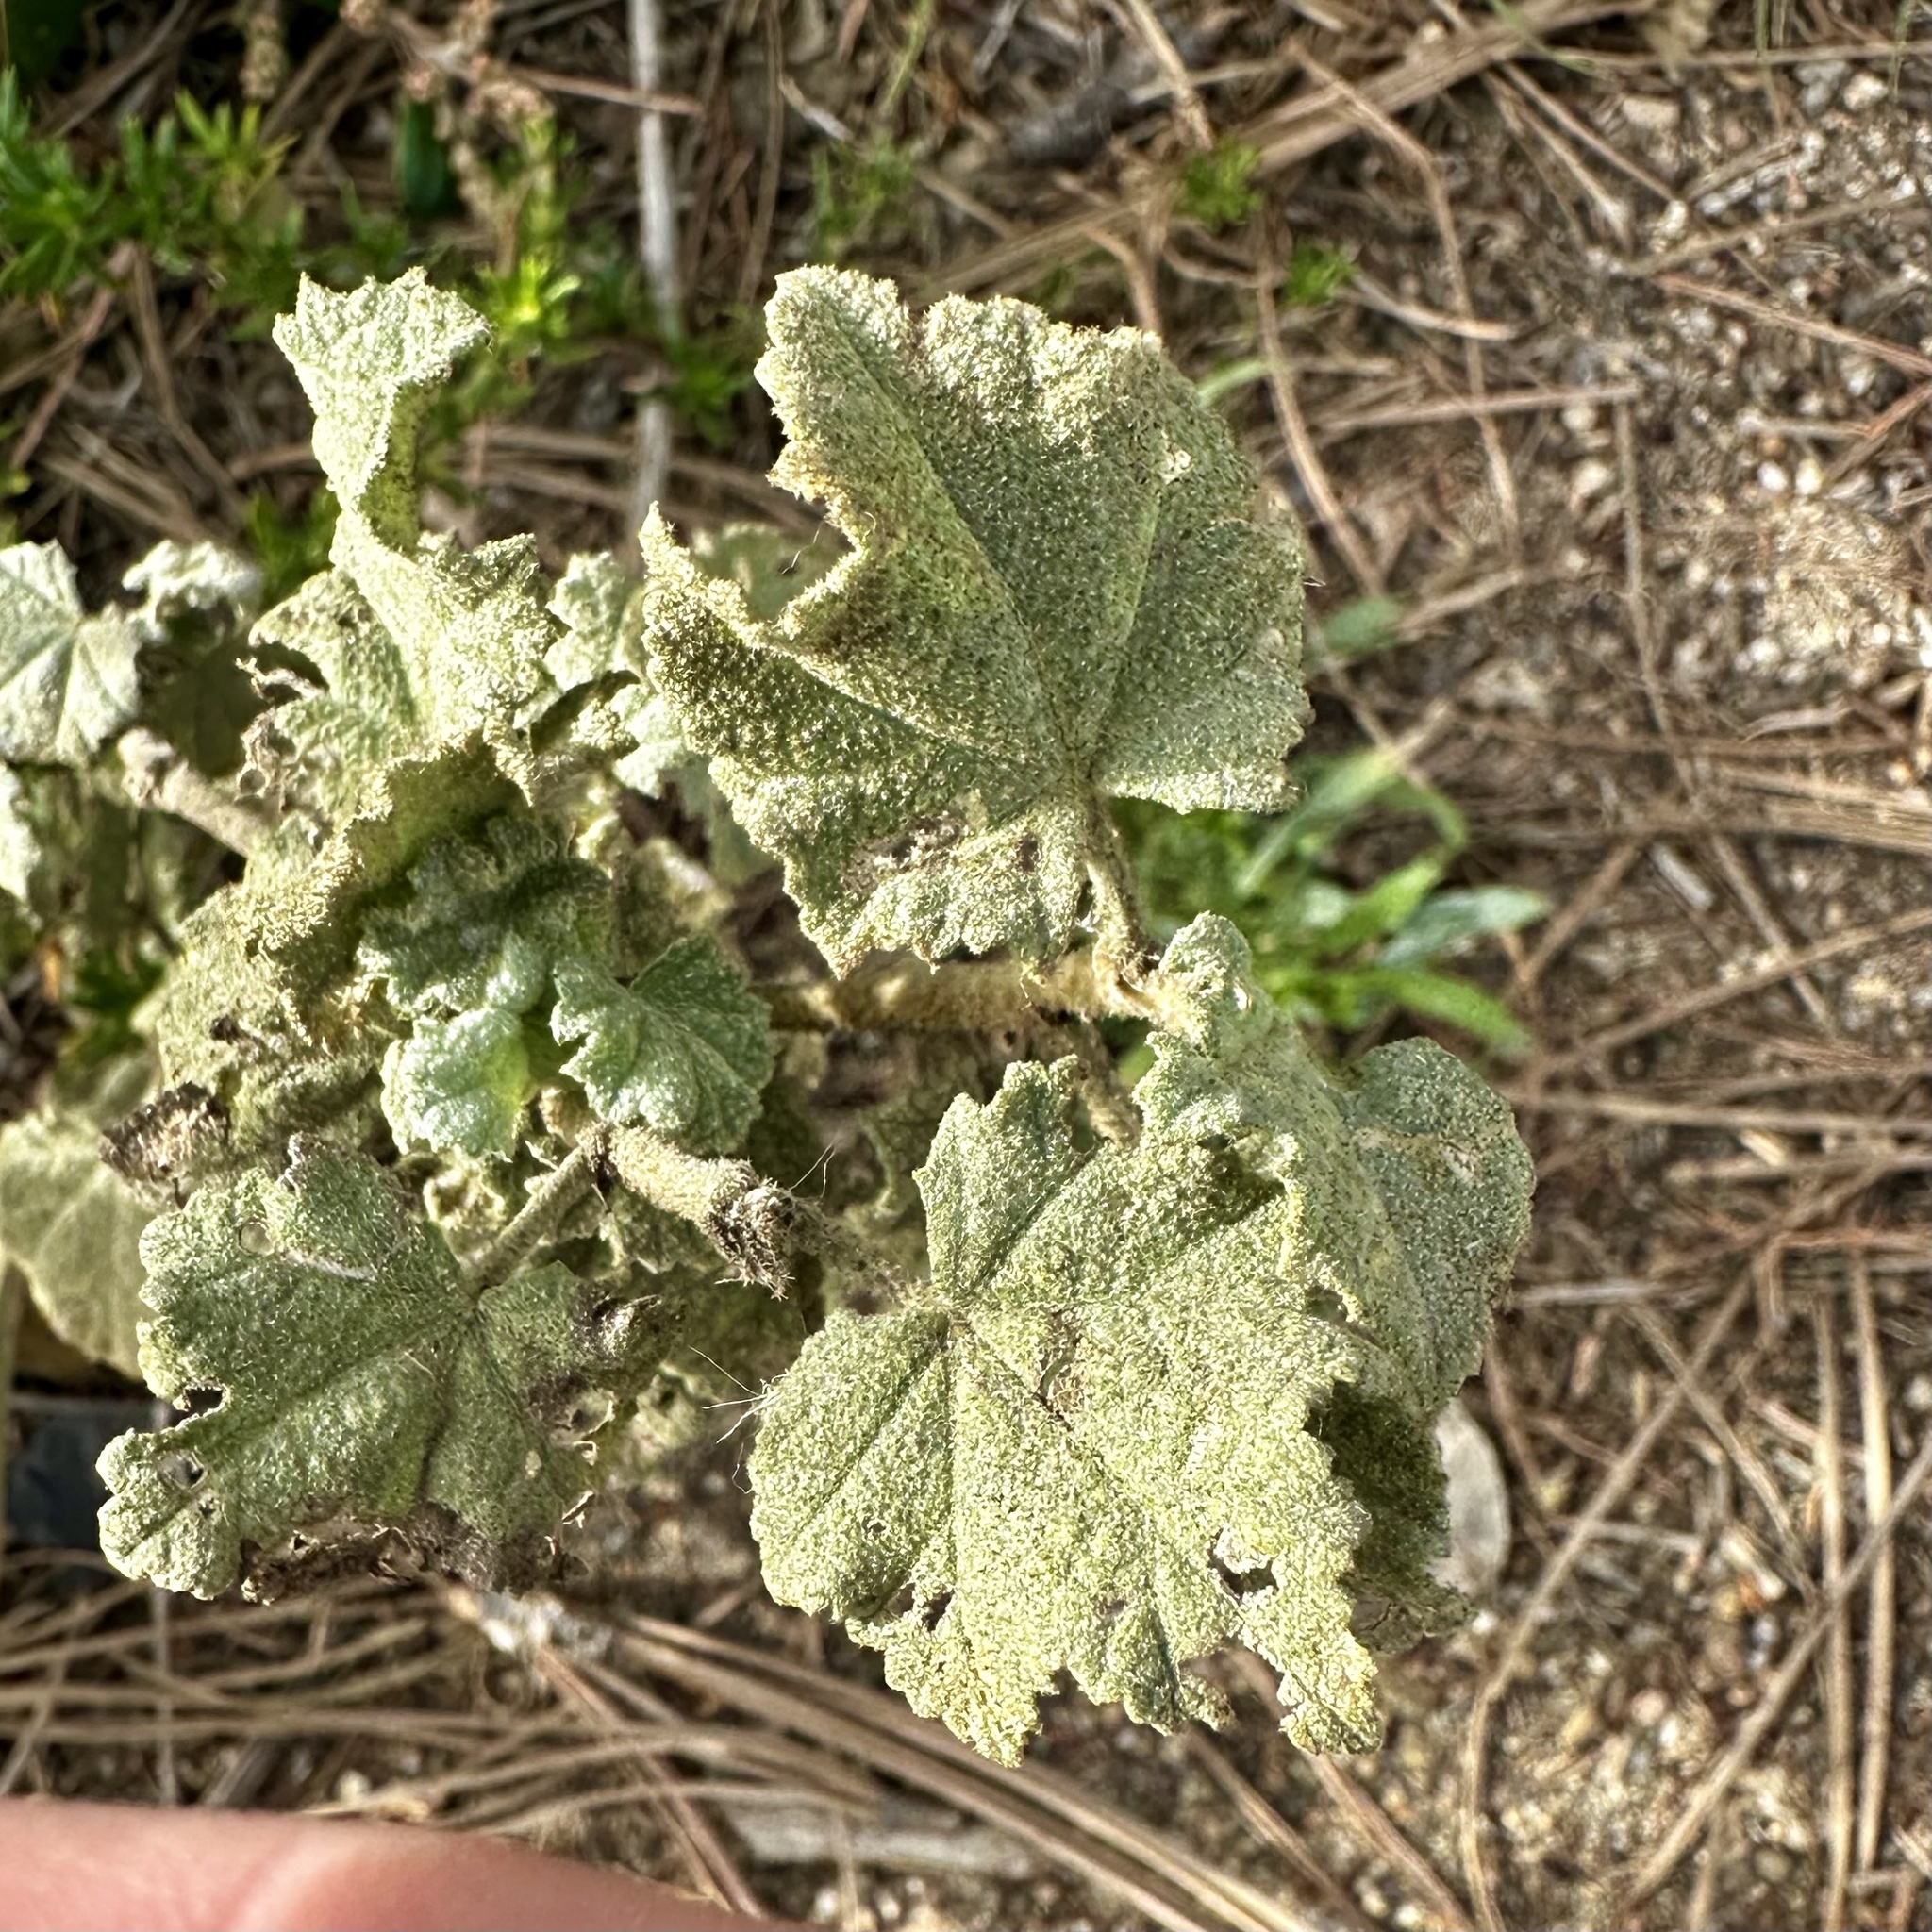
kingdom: Plantae
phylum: Tracheophyta
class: Magnoliopsida
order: Malvales
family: Malvaceae
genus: Malacothamnus
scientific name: Malacothamnus fasciculatus
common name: Sant cruz island bush-mallow
